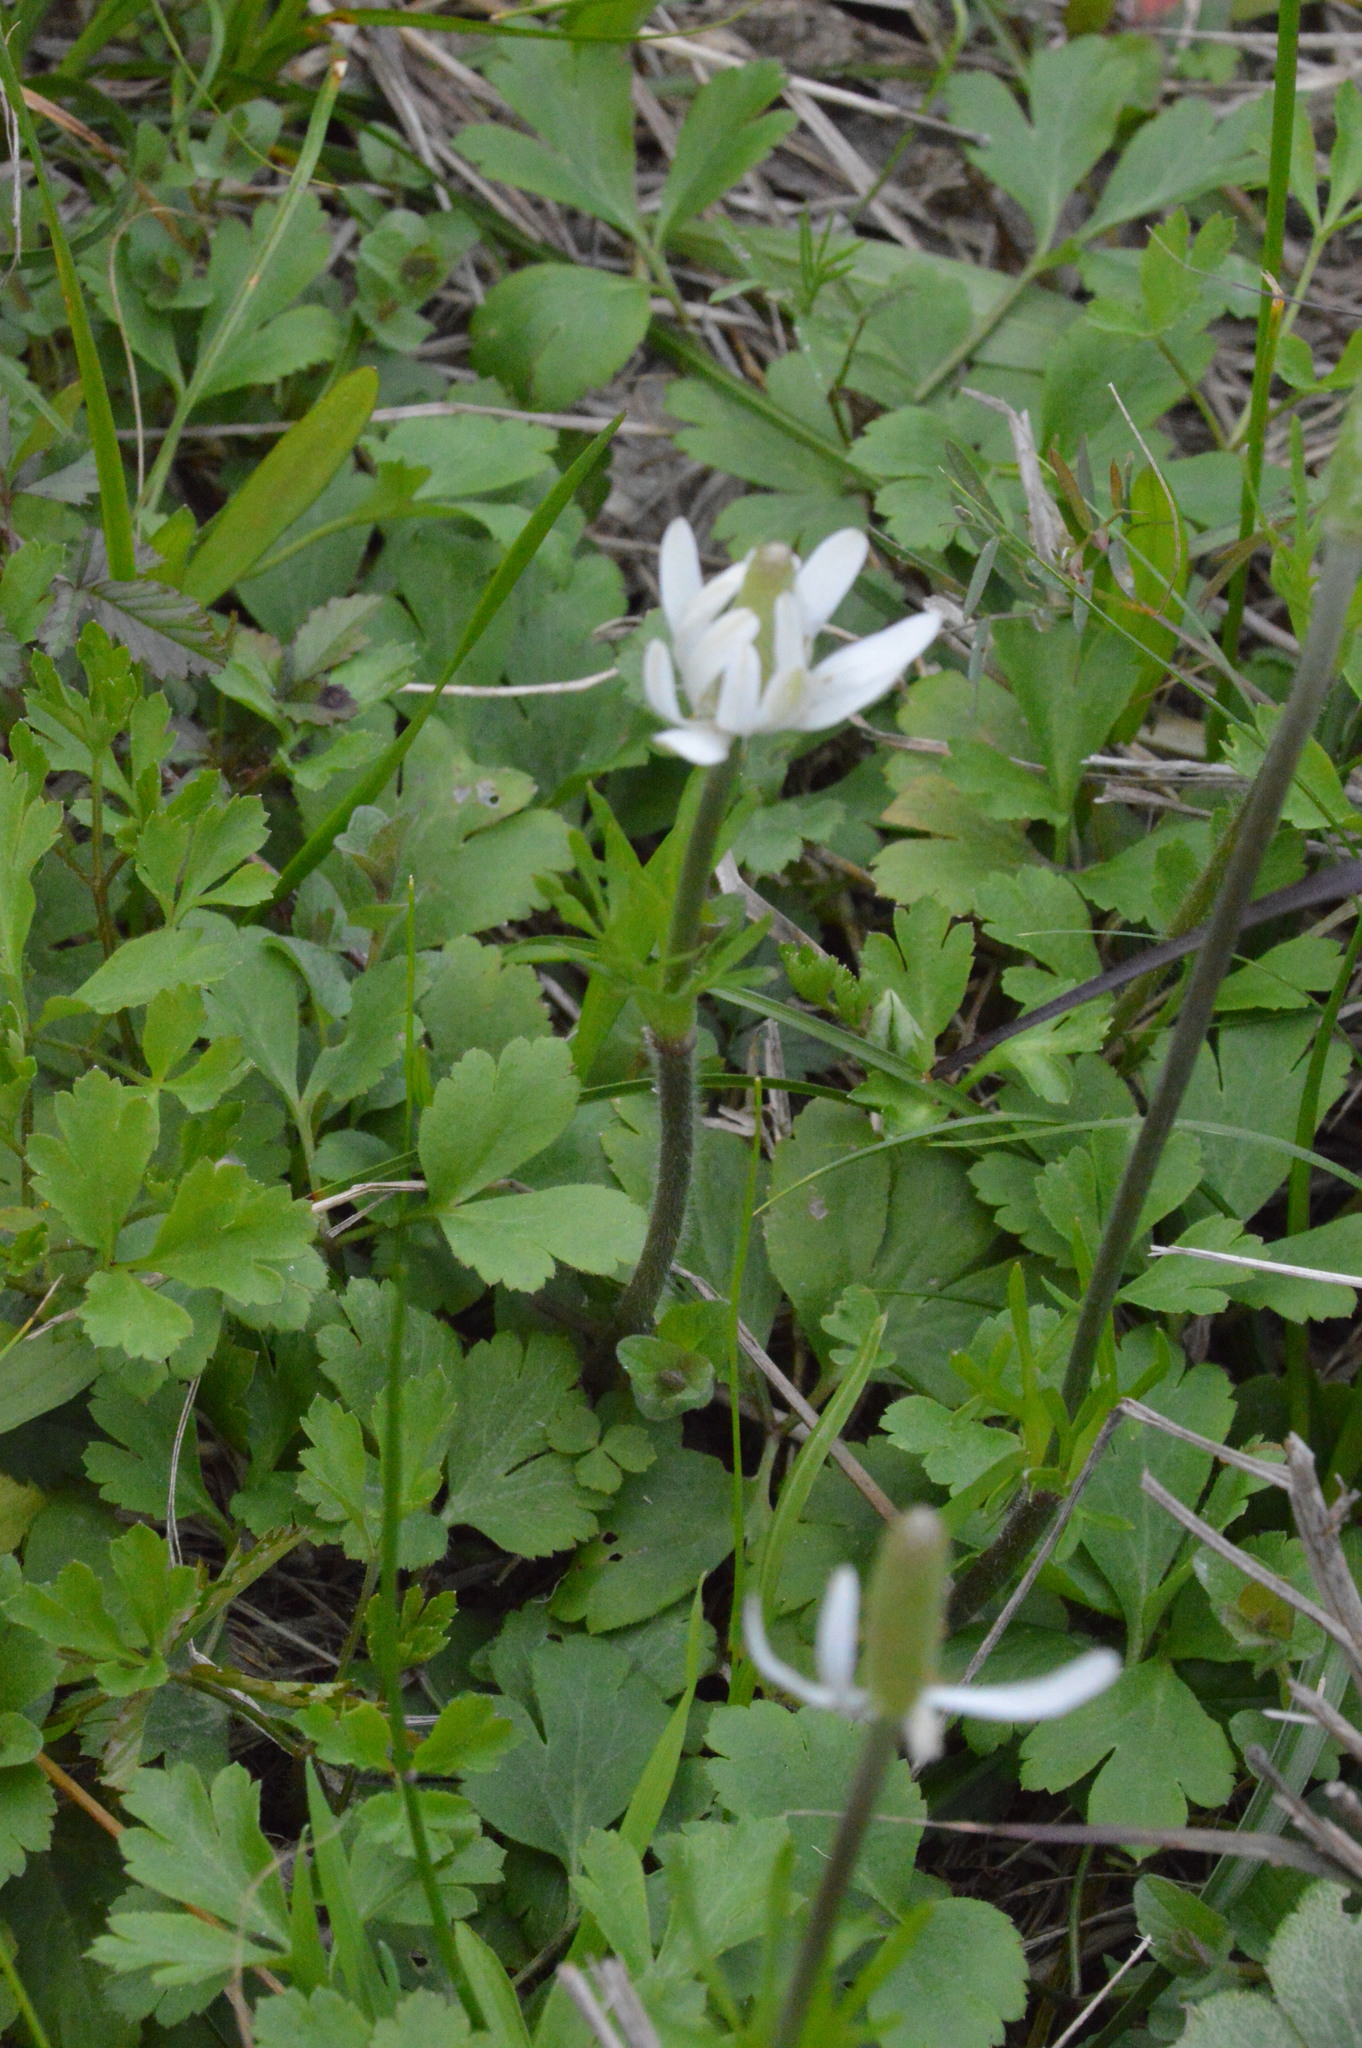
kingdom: Plantae
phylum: Tracheophyta
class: Magnoliopsida
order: Ranunculales
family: Ranunculaceae
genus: Anemone
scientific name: Anemone berlandieri
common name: Ten-petal anemone
